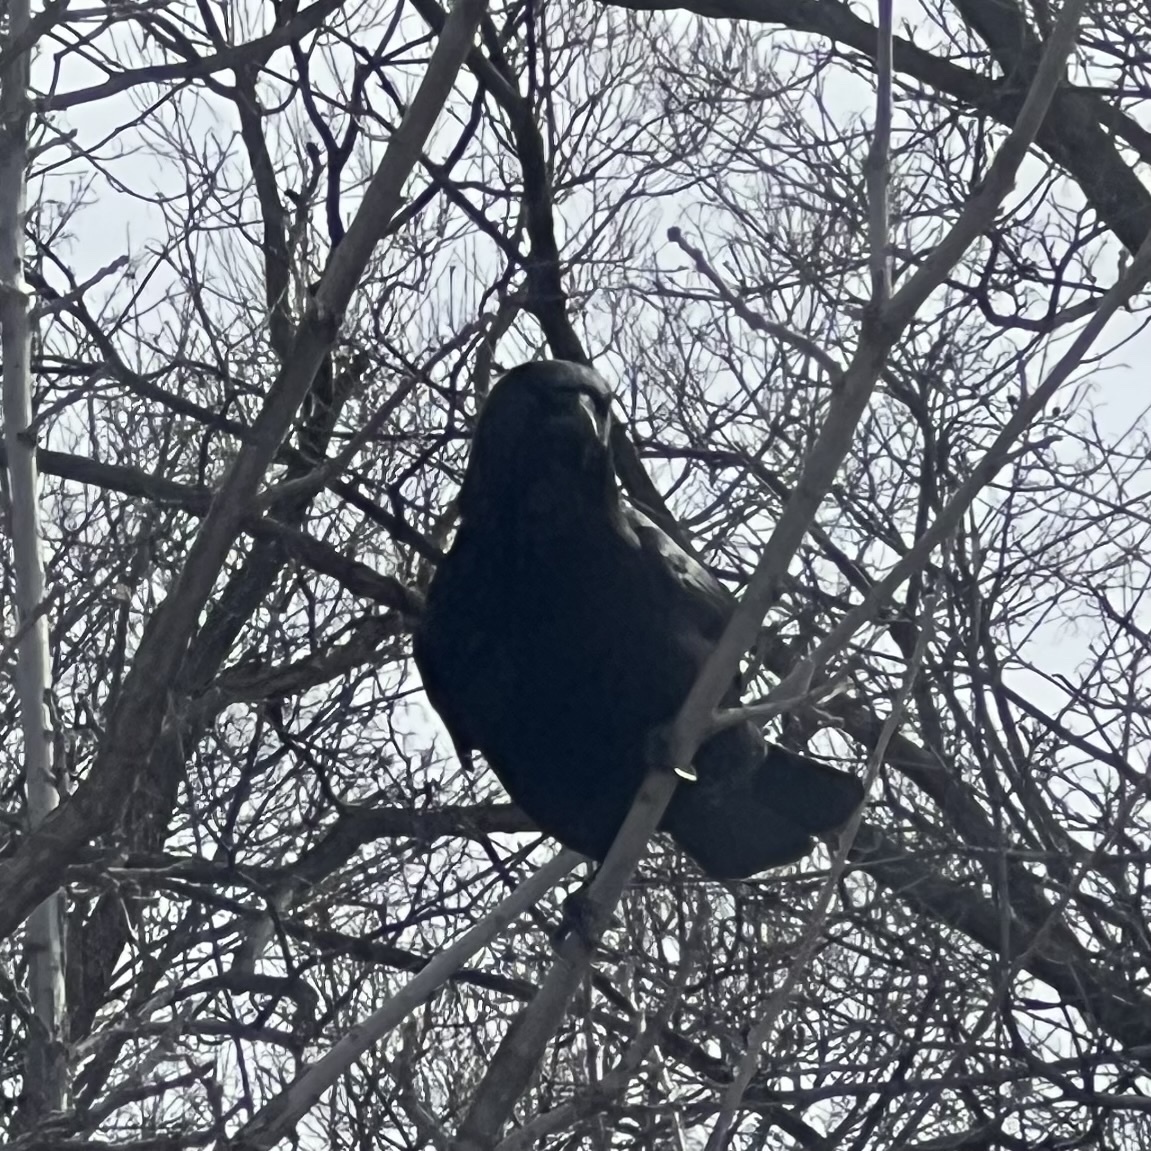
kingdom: Animalia
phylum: Chordata
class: Aves
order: Passeriformes
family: Corvidae
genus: Corvus
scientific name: Corvus brachyrhynchos
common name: American crow
